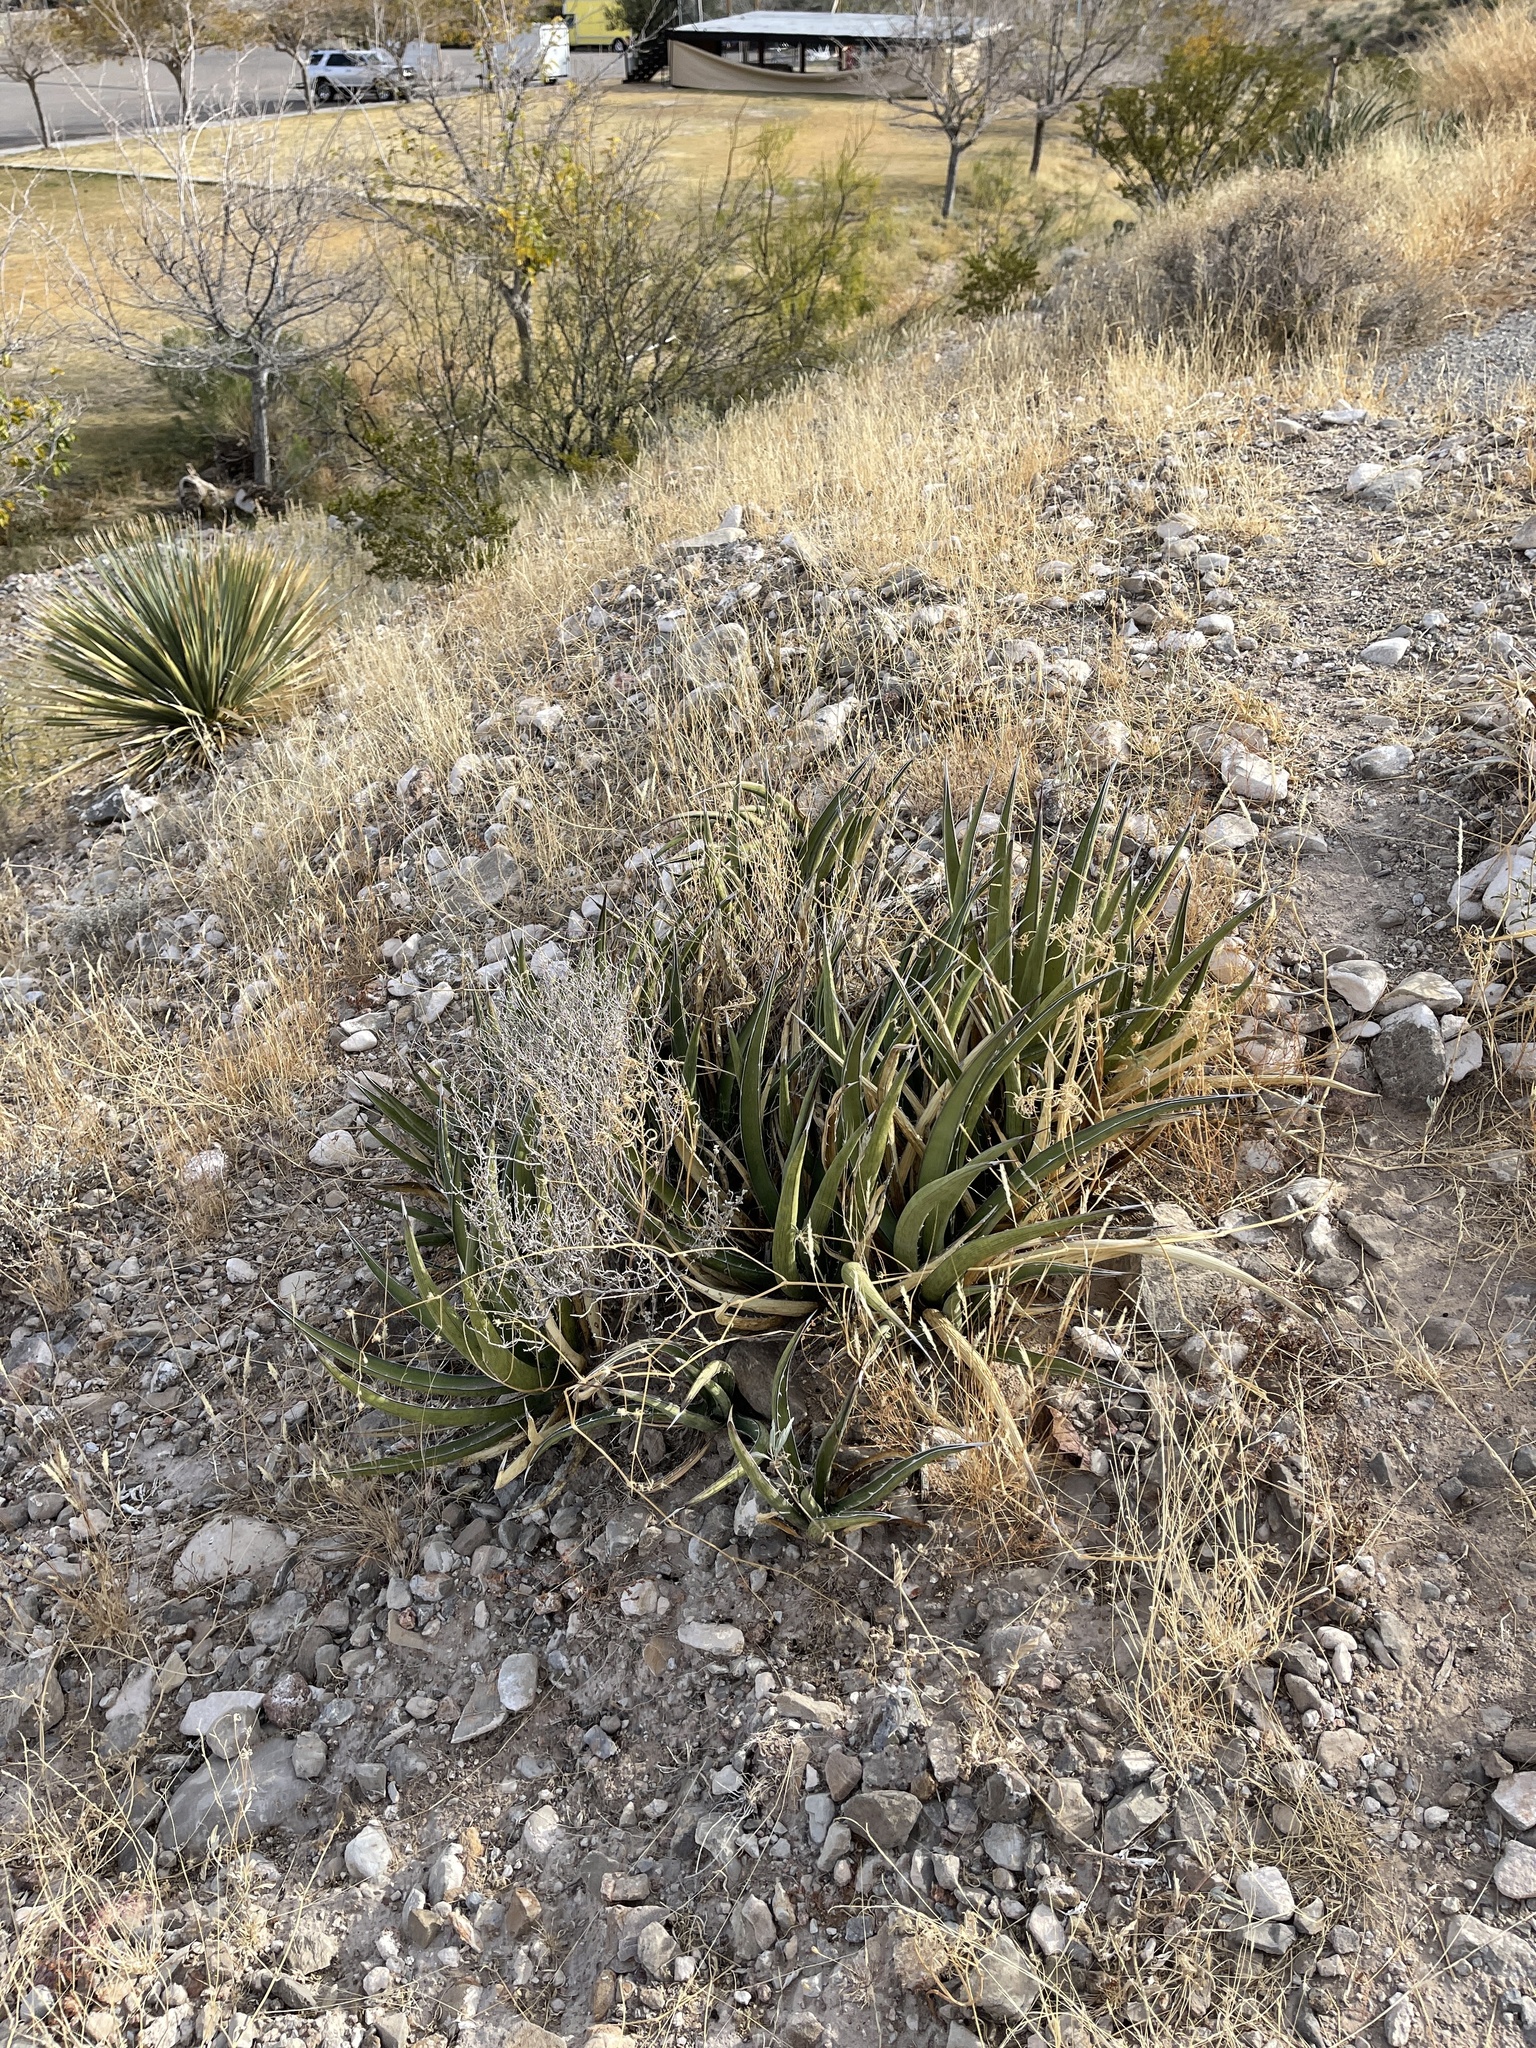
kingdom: Plantae
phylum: Tracheophyta
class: Liliopsida
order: Asparagales
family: Asparagaceae
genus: Agave
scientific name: Agave lechuguilla
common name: Lecheguilla agave
